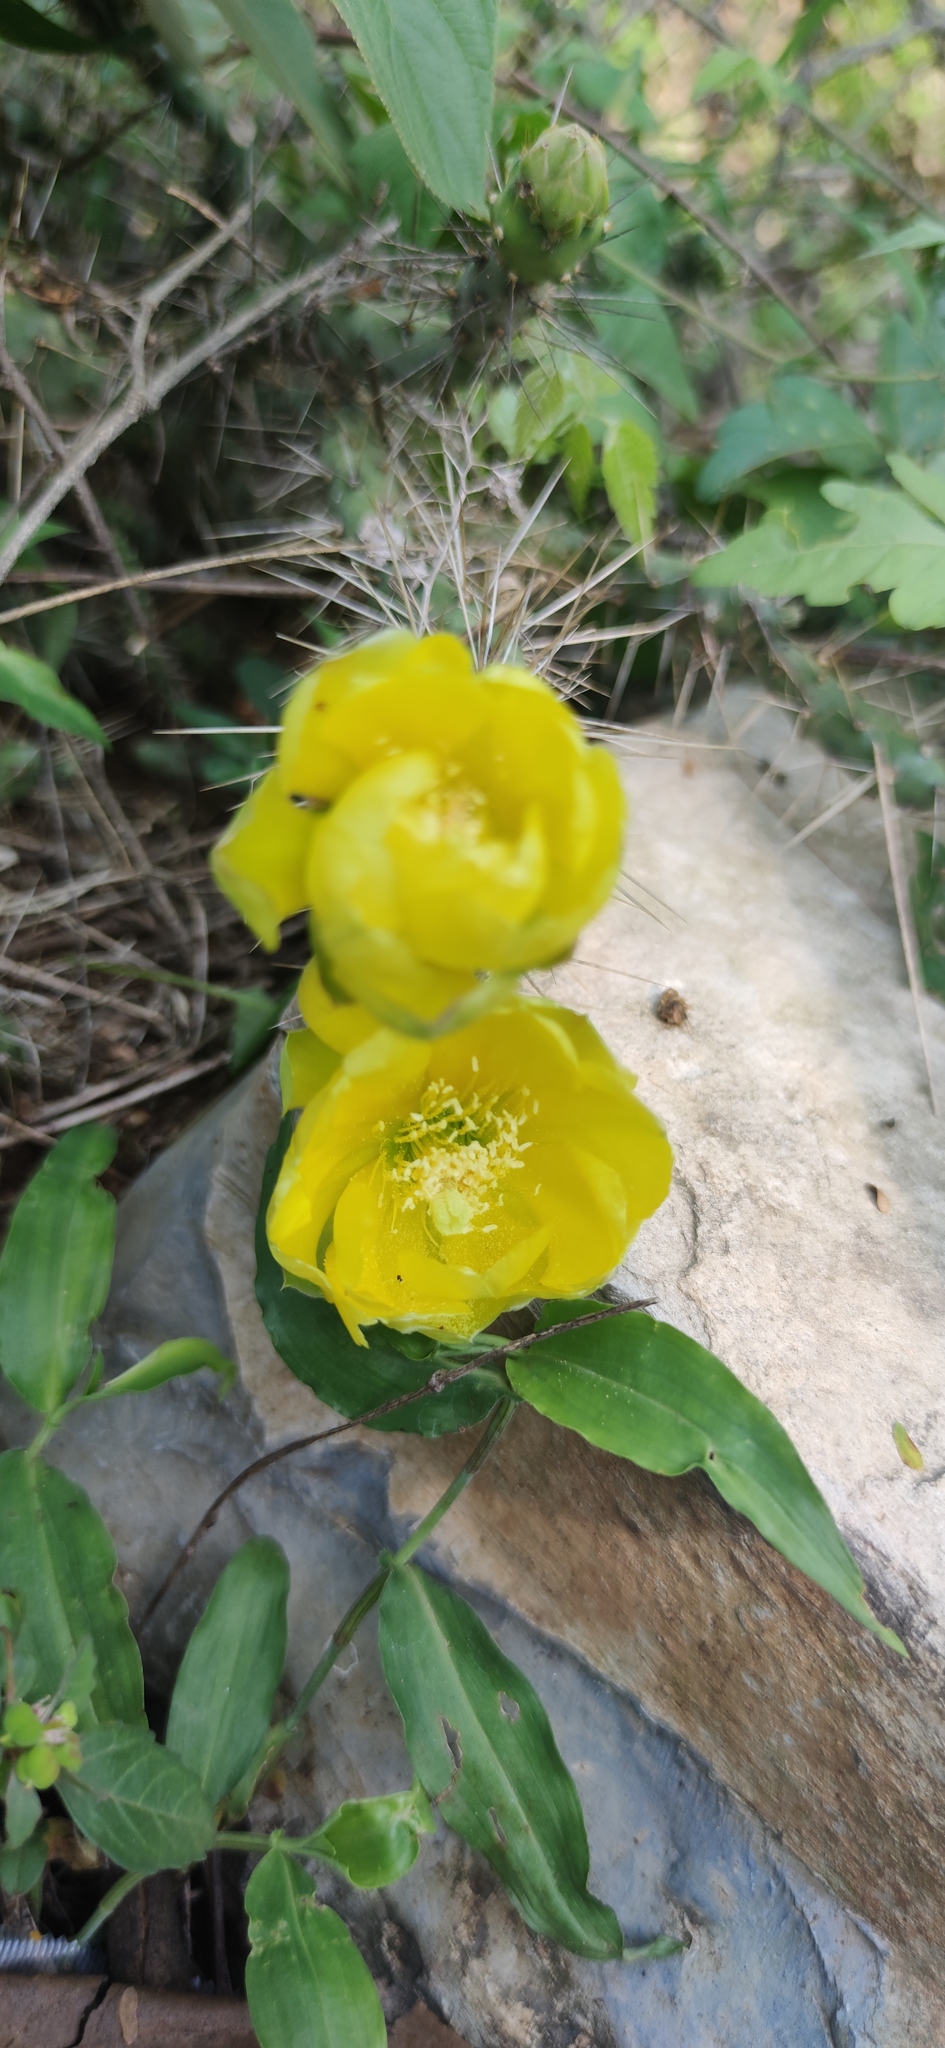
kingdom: Plantae
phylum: Tracheophyta
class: Magnoliopsida
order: Caryophyllales
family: Cactaceae
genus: Opuntia
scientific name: Opuntia pubescens
